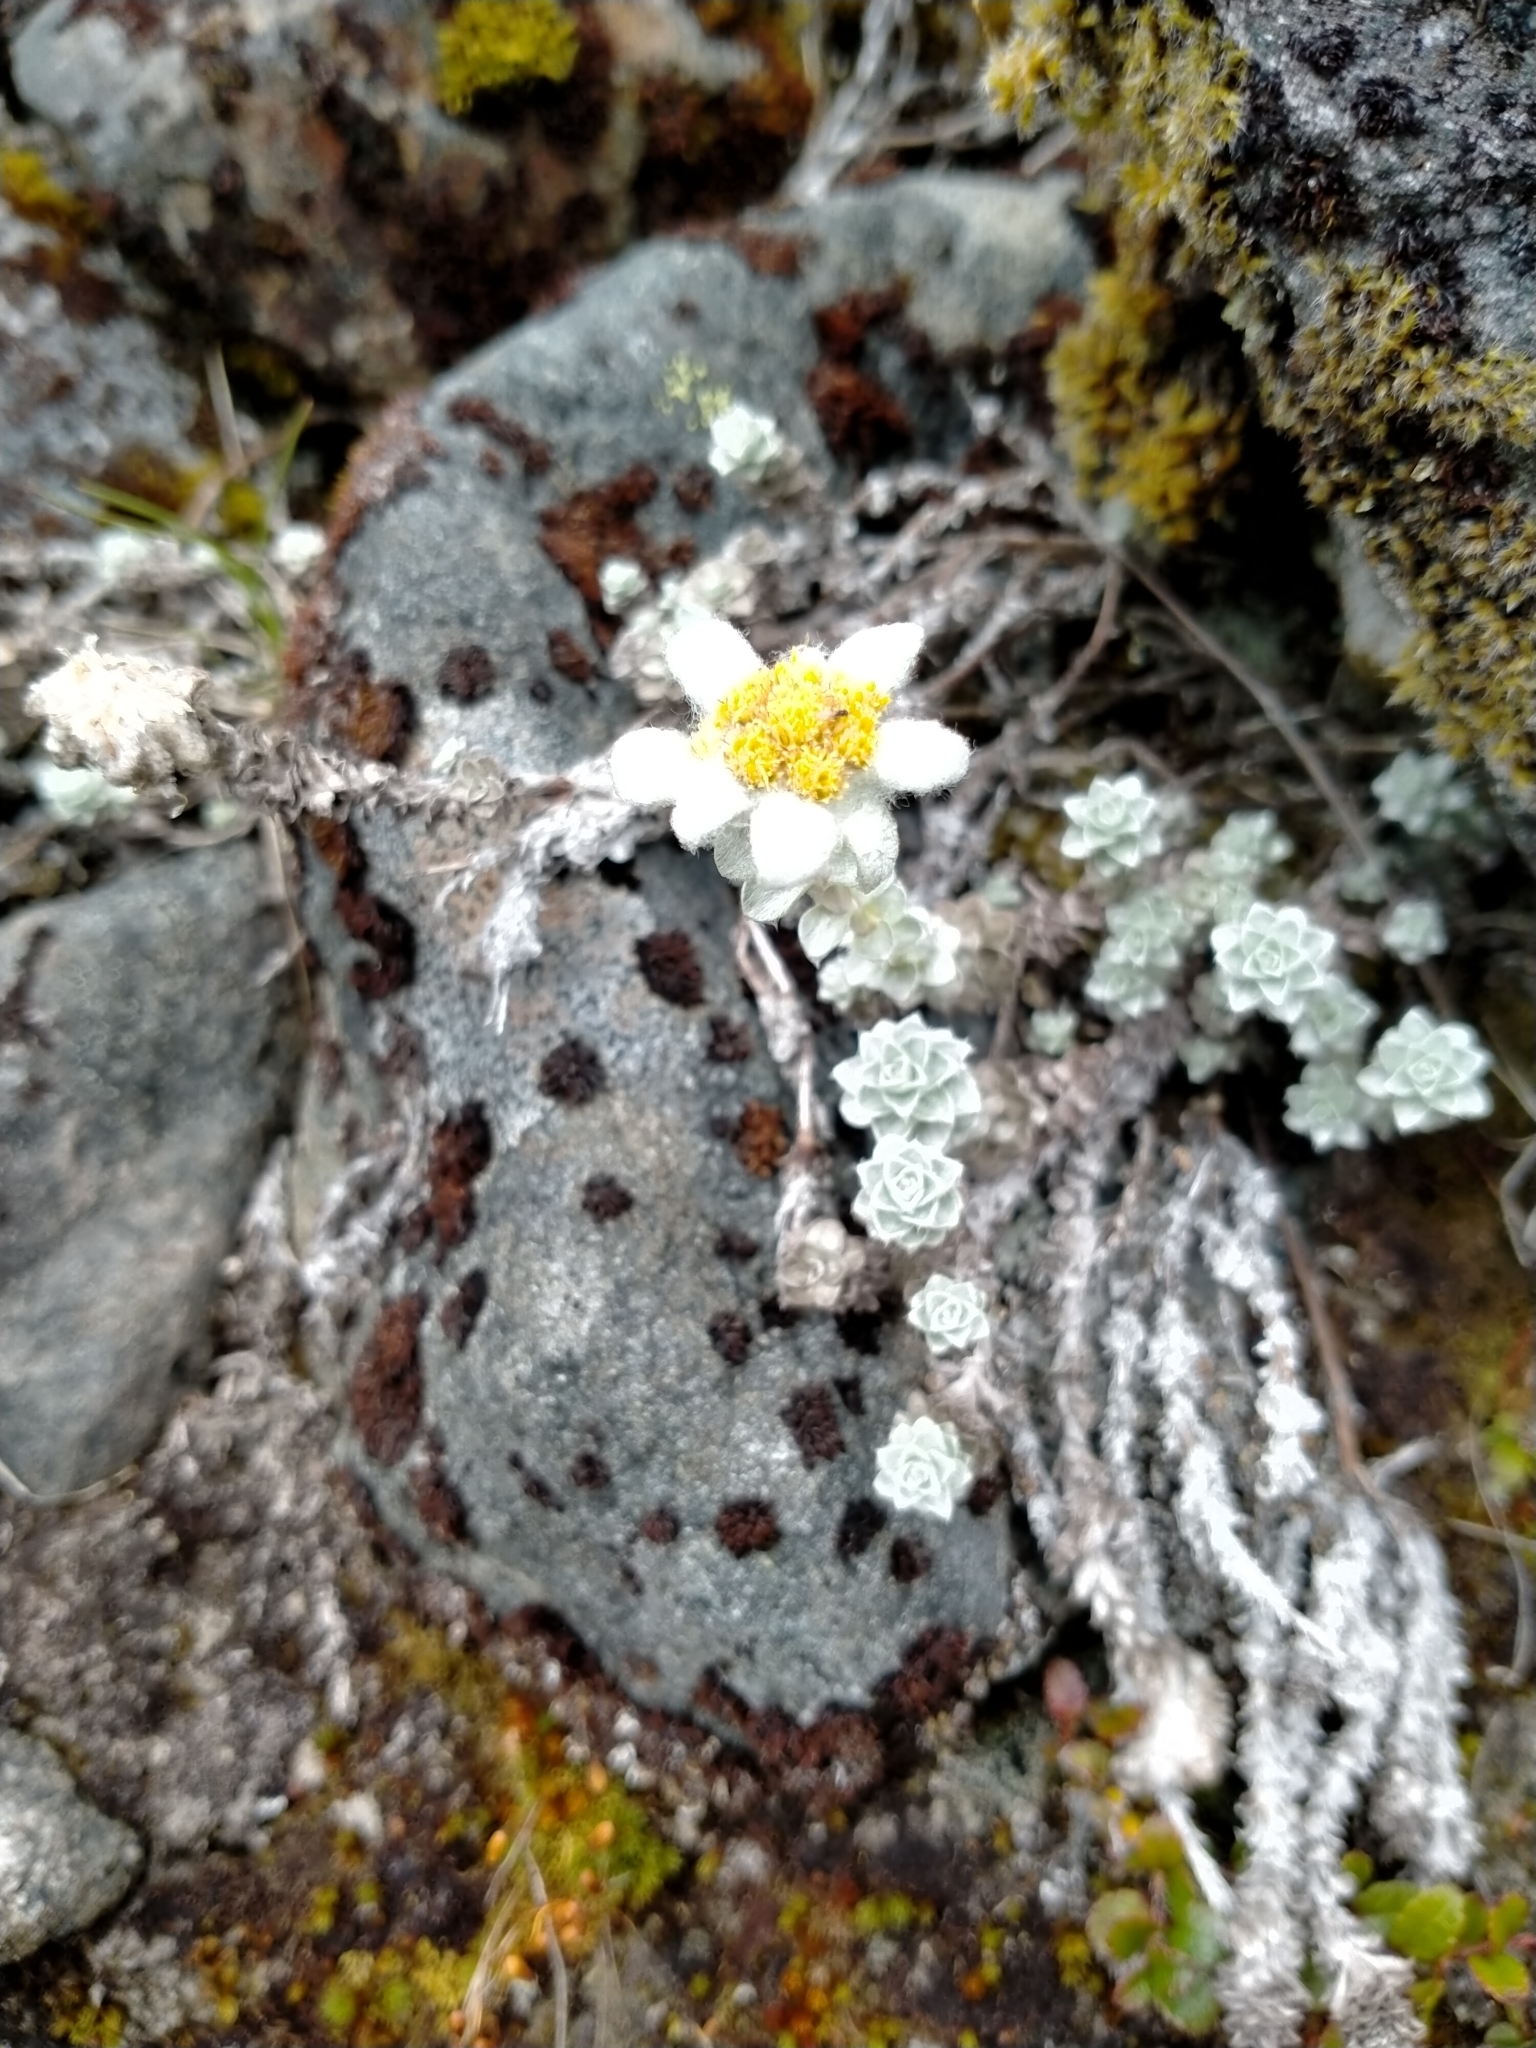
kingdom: Plantae
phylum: Tracheophyta
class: Magnoliopsida
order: Asterales
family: Asteraceae
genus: Leucogenes
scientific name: Leucogenes grandiceps
